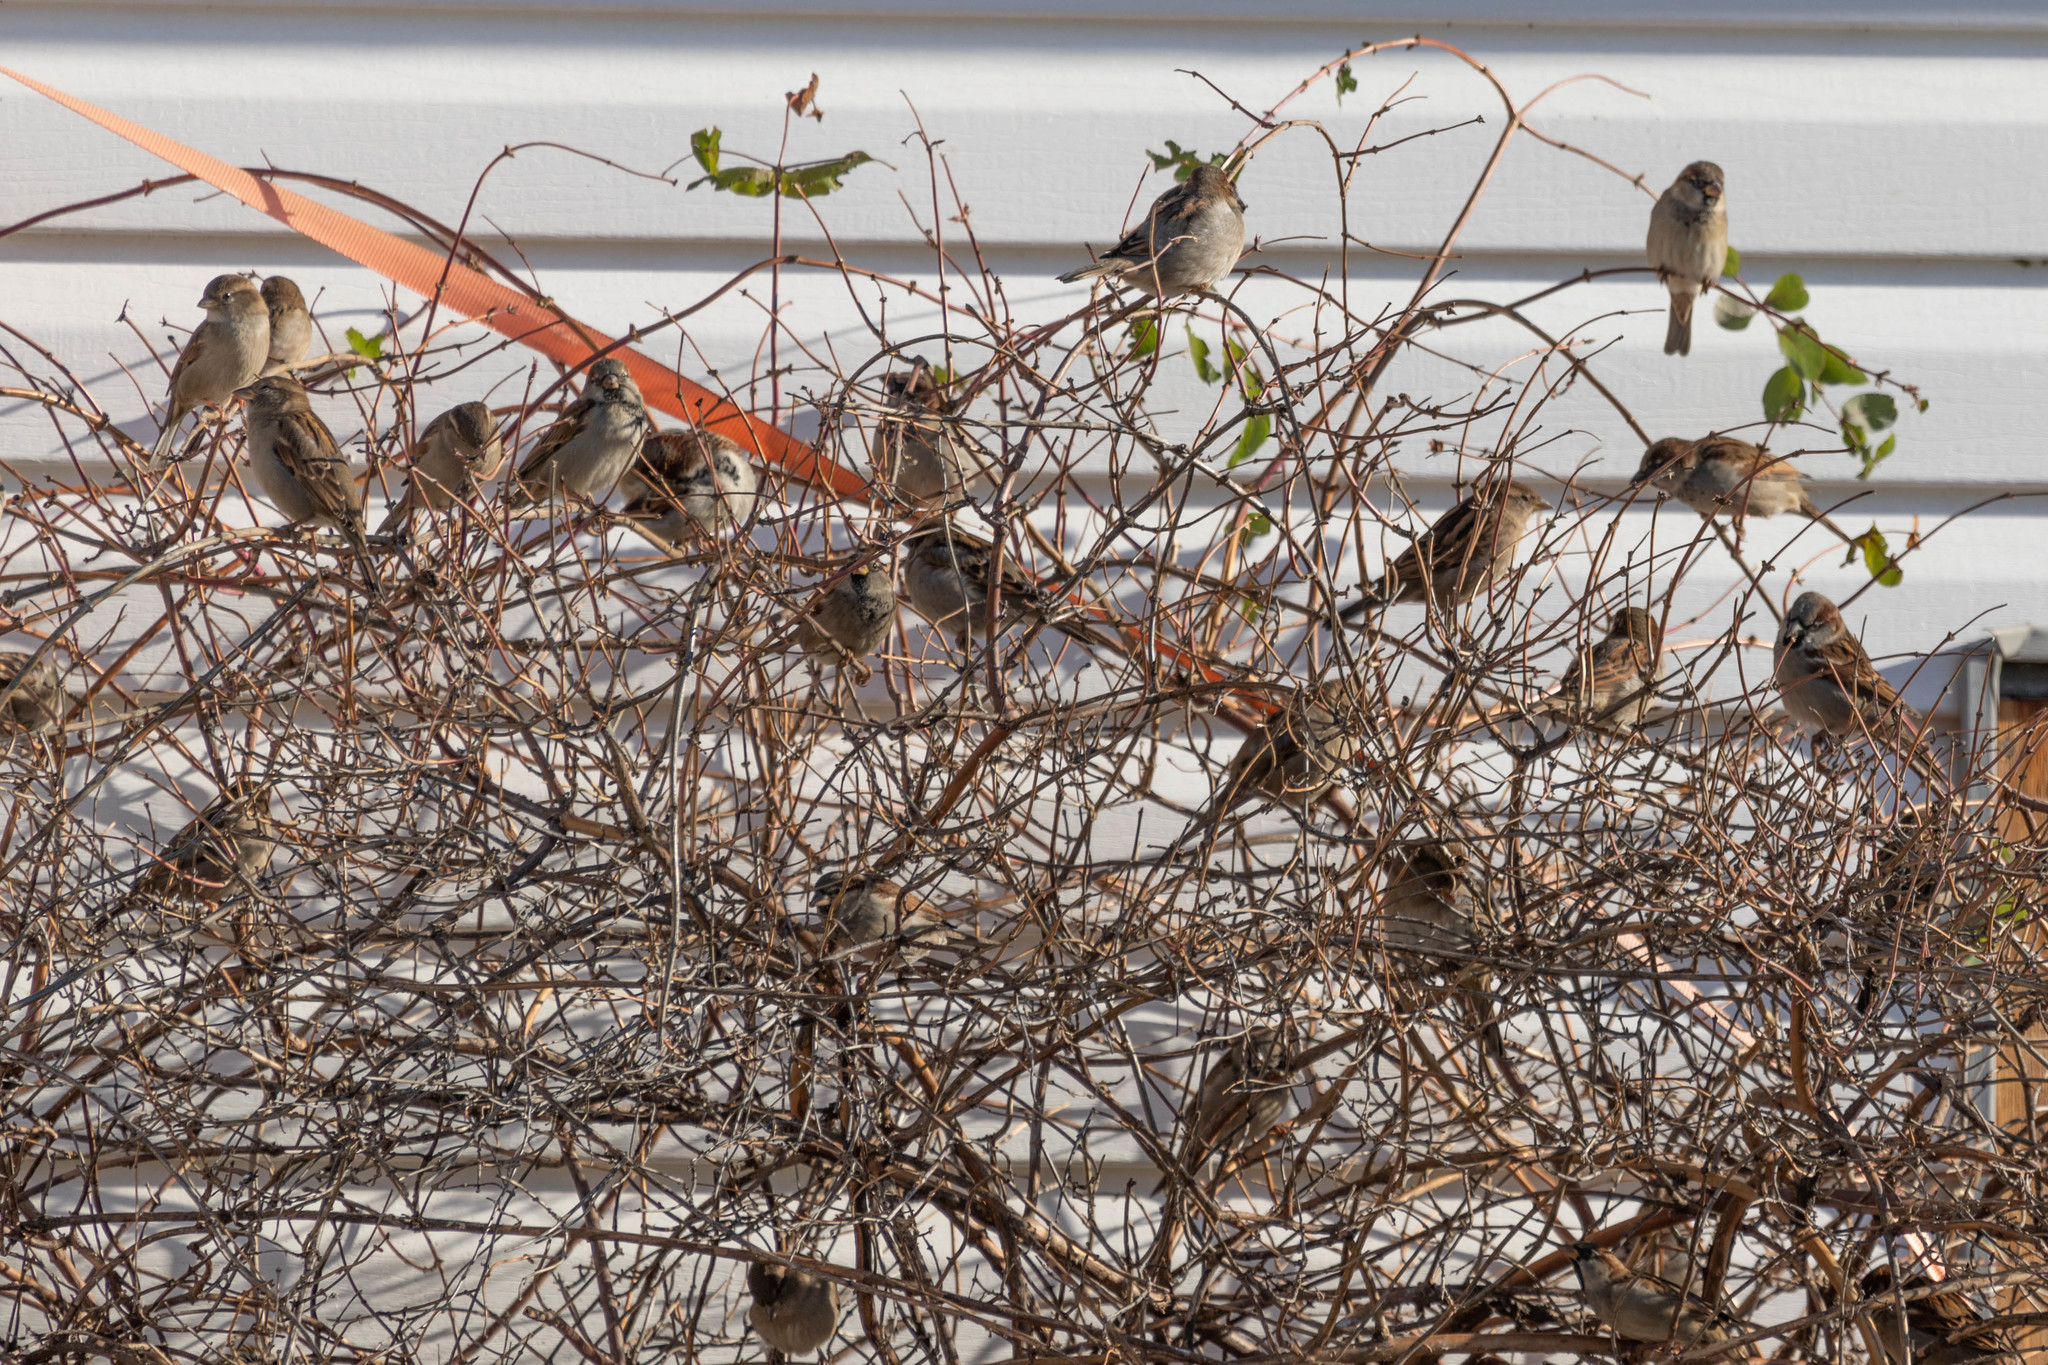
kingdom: Animalia
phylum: Chordata
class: Aves
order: Passeriformes
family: Passeridae
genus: Passer
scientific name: Passer domesticus
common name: House sparrow
